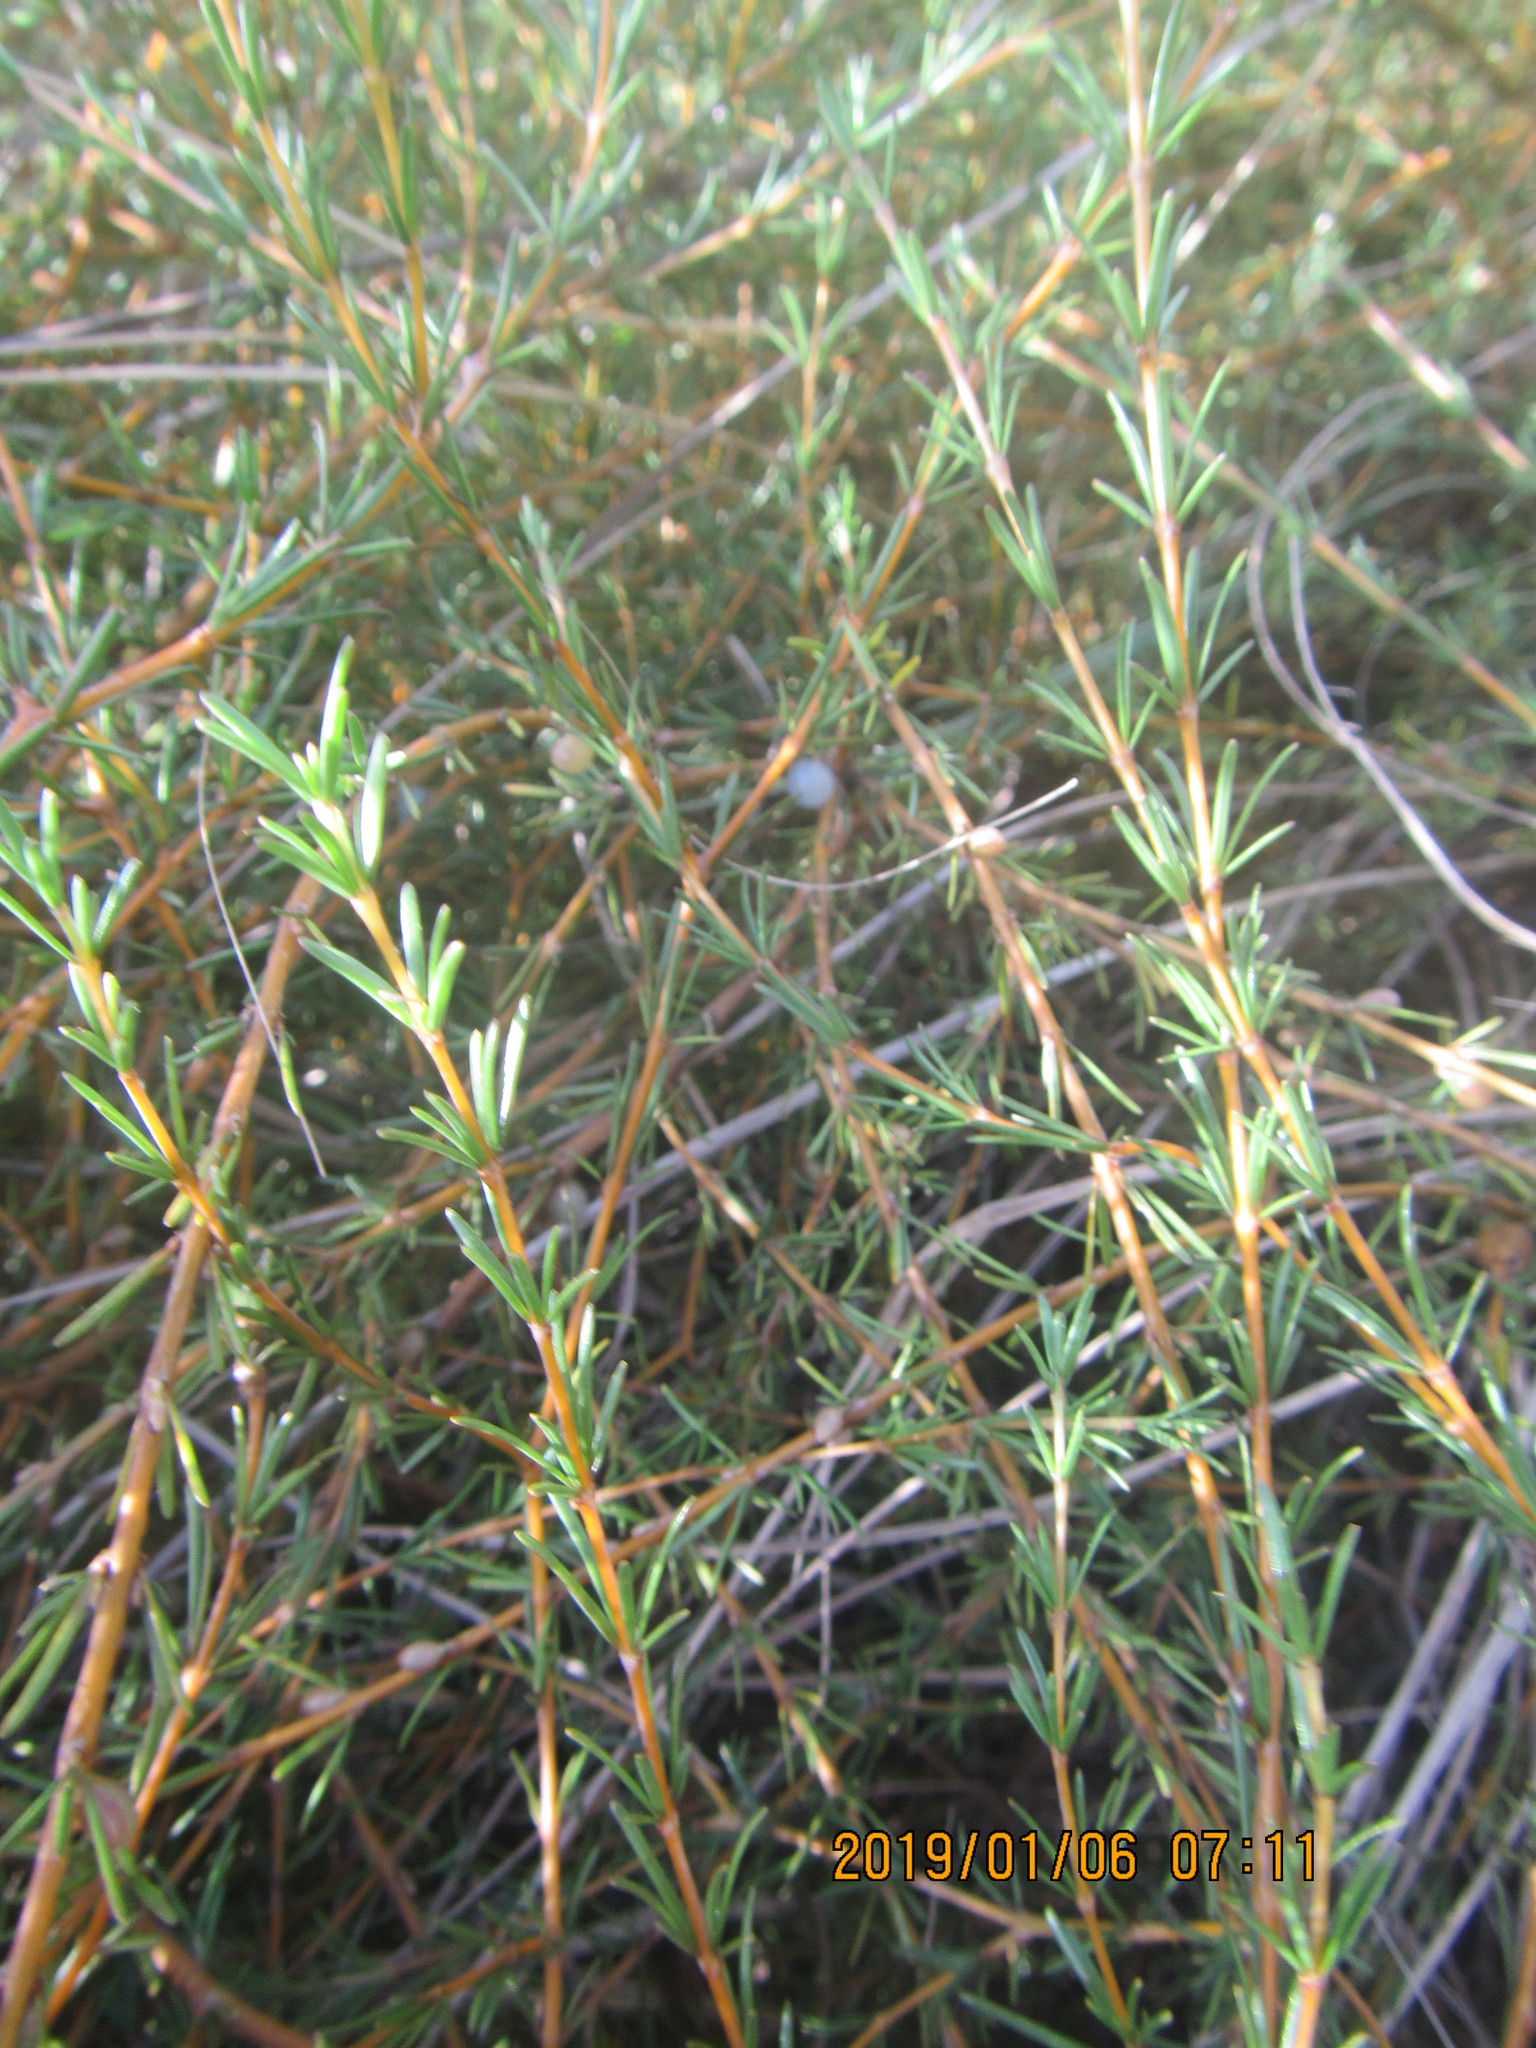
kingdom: Plantae
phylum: Tracheophyta
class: Magnoliopsida
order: Gentianales
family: Rubiaceae
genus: Coprosma
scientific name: Coprosma acerosa
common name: Sand coprosma
